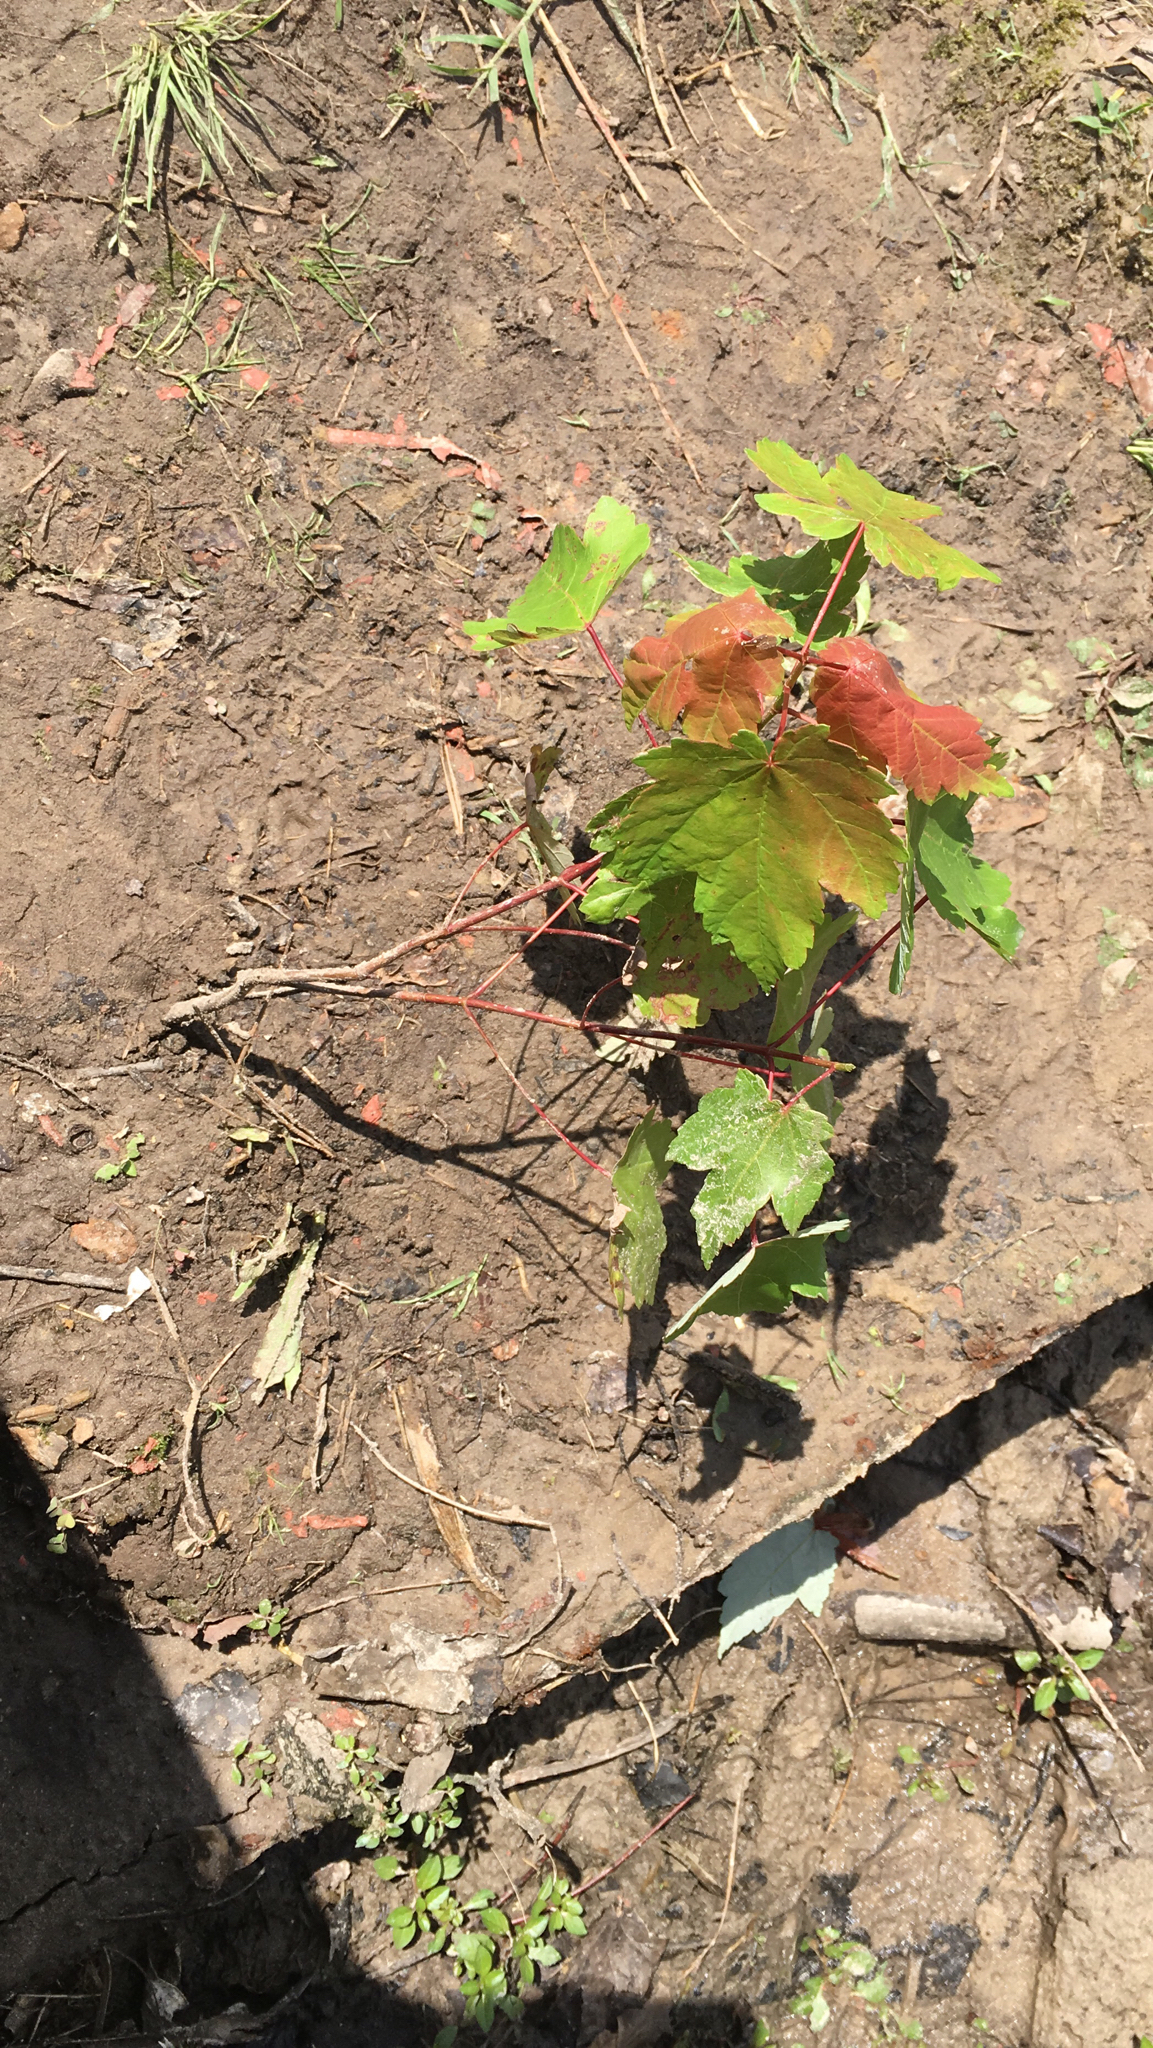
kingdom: Plantae
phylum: Tracheophyta
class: Magnoliopsida
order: Sapindales
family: Sapindaceae
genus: Acer
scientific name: Acer rubrum
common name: Red maple
